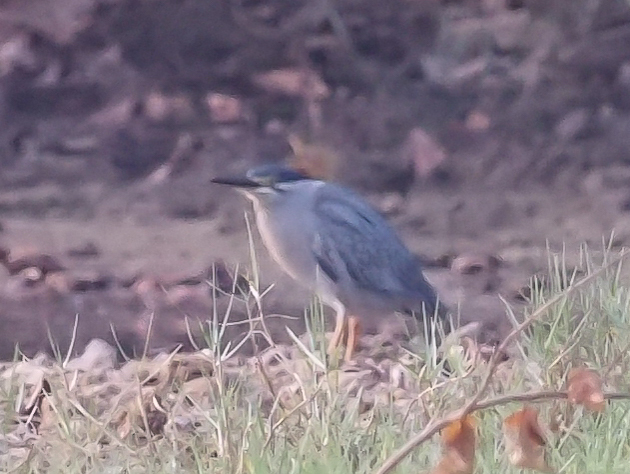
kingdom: Animalia
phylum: Chordata
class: Aves
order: Pelecaniformes
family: Ardeidae
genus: Butorides
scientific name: Butorides striata
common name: Striated heron
